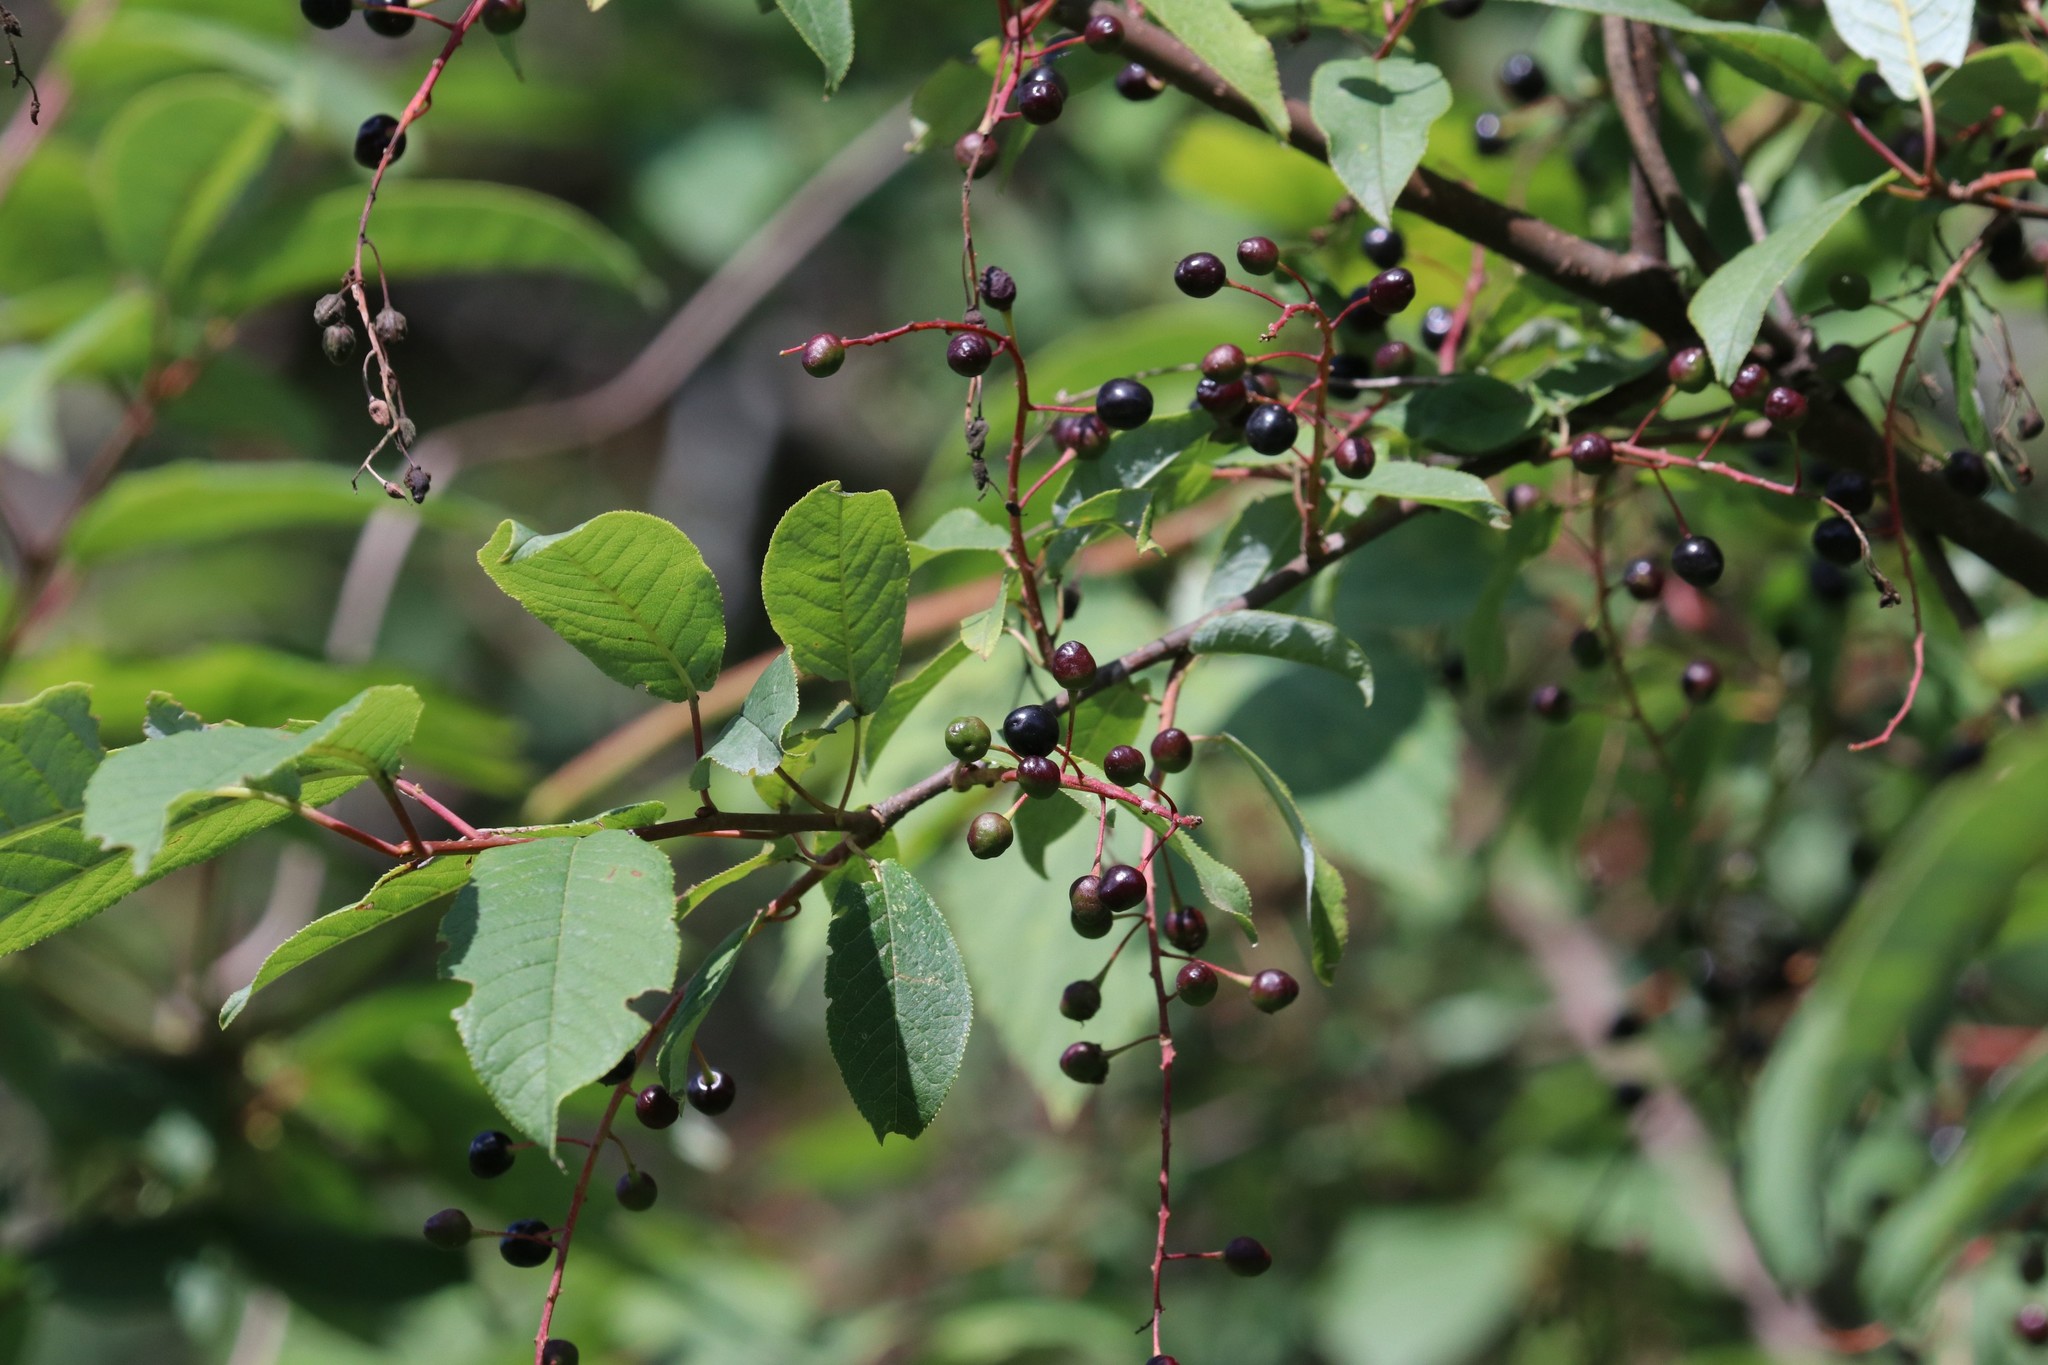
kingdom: Plantae
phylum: Tracheophyta
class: Magnoliopsida
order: Rosales
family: Rosaceae
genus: Prunus
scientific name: Prunus padus
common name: Bird cherry
